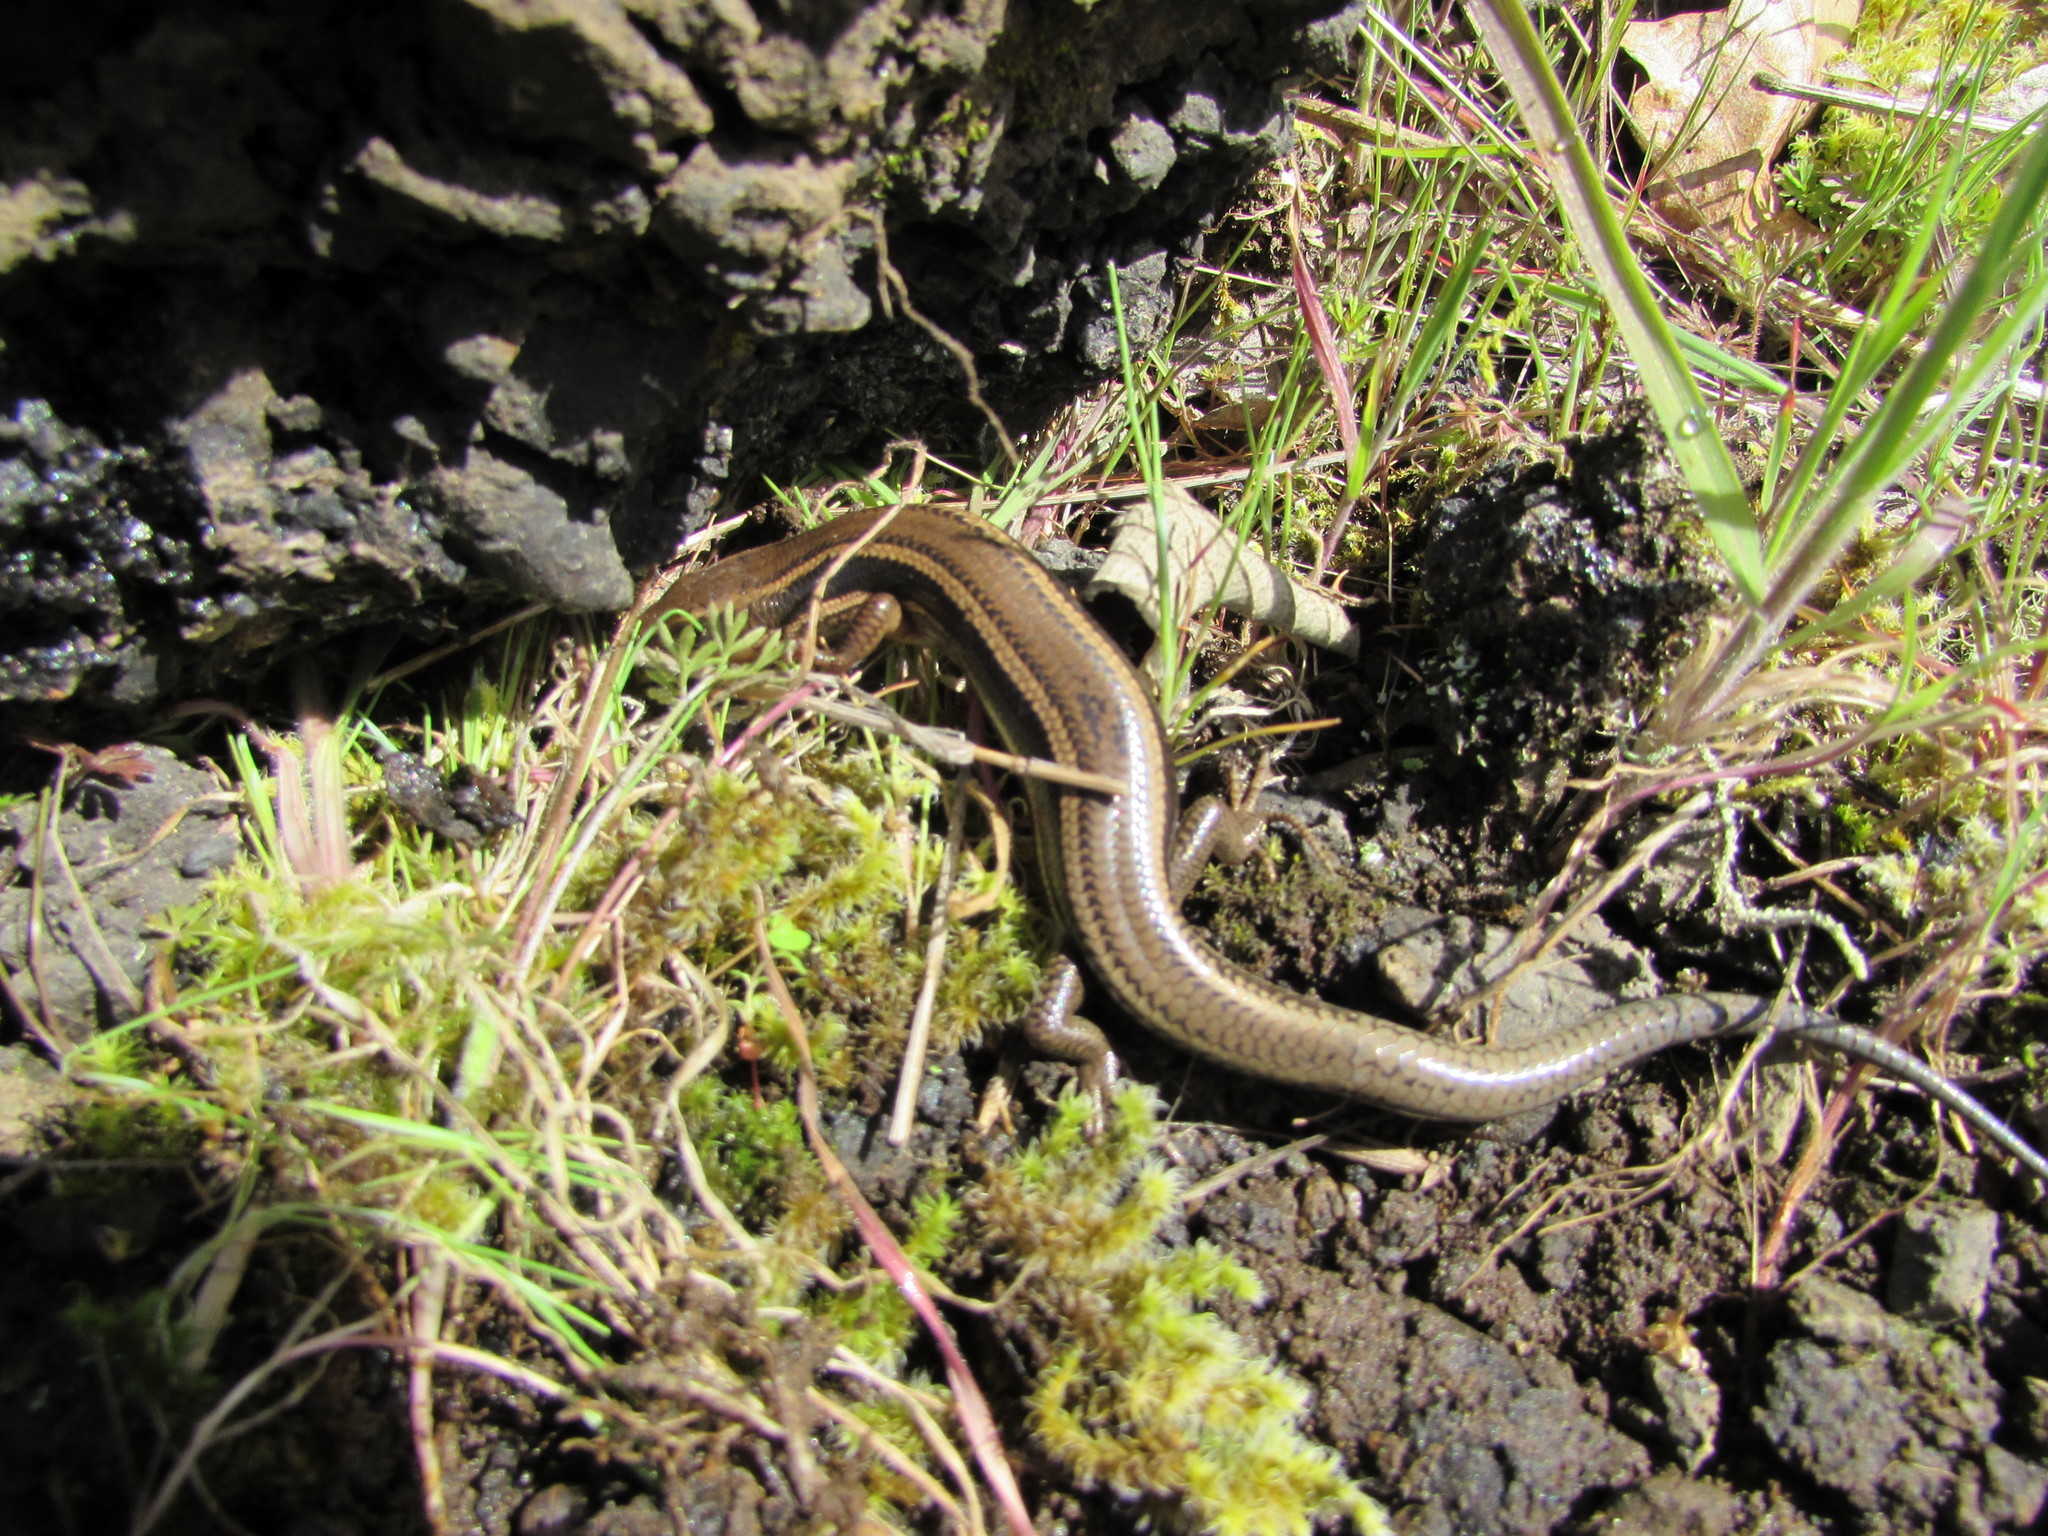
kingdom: Animalia
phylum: Chordata
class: Squamata
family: Scincidae
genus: Plestiodon
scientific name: Plestiodon skiltonianus
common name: Coronado island skink [interparietalis]
